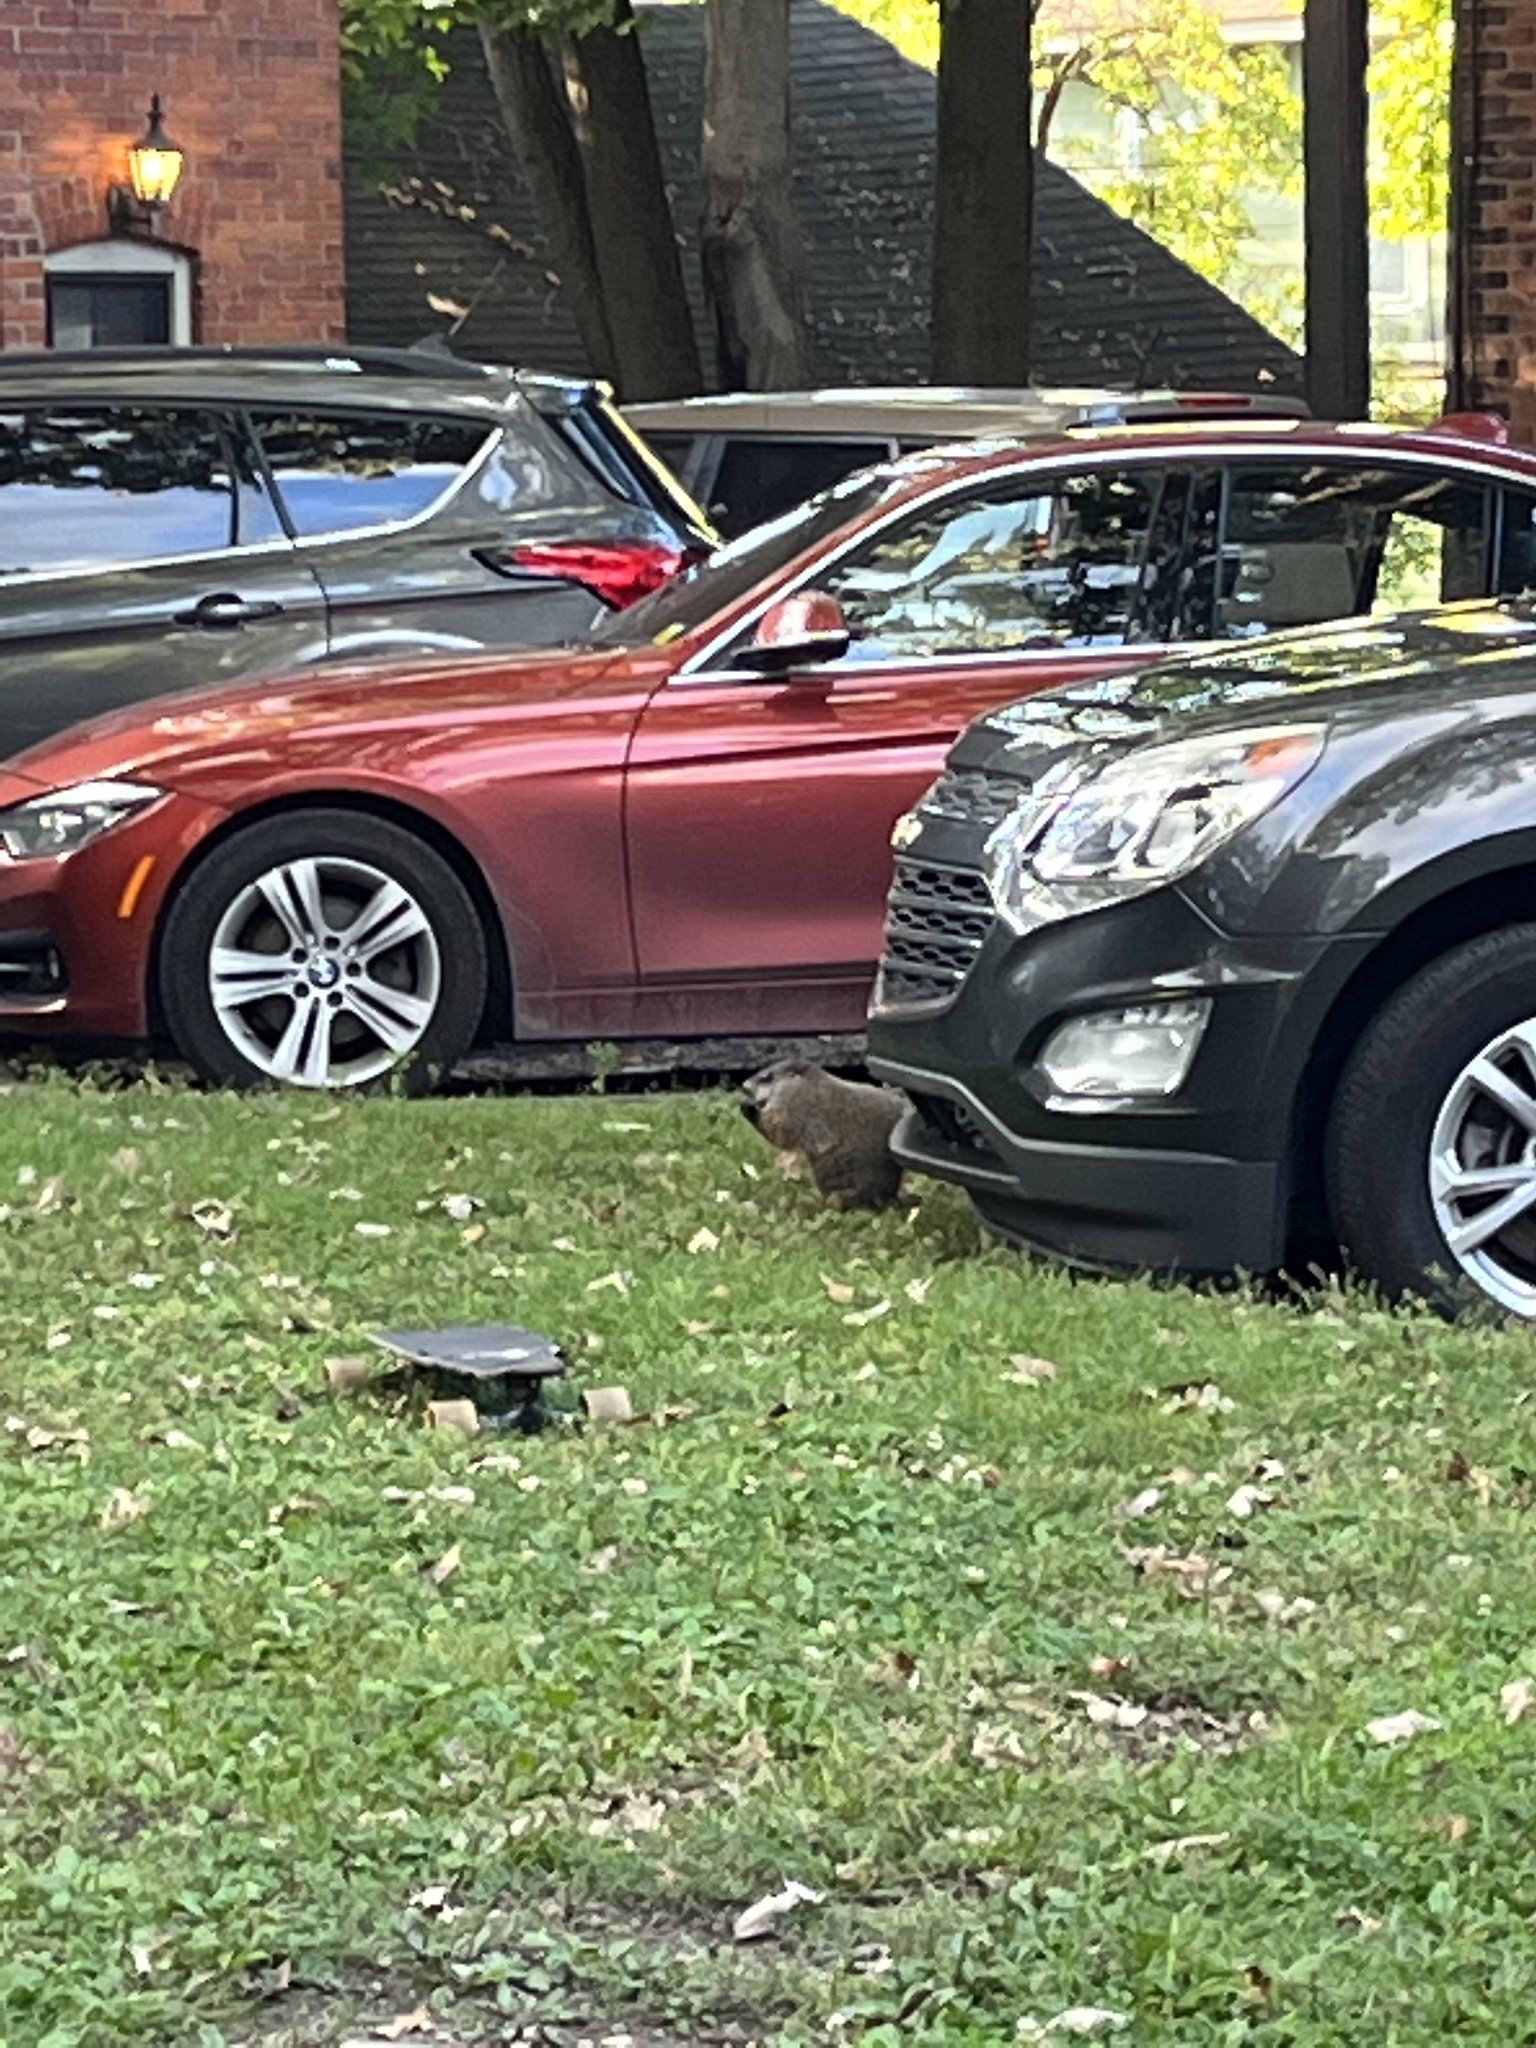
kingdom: Animalia
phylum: Chordata
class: Mammalia
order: Rodentia
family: Sciuridae
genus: Marmota
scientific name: Marmota monax
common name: Groundhog
